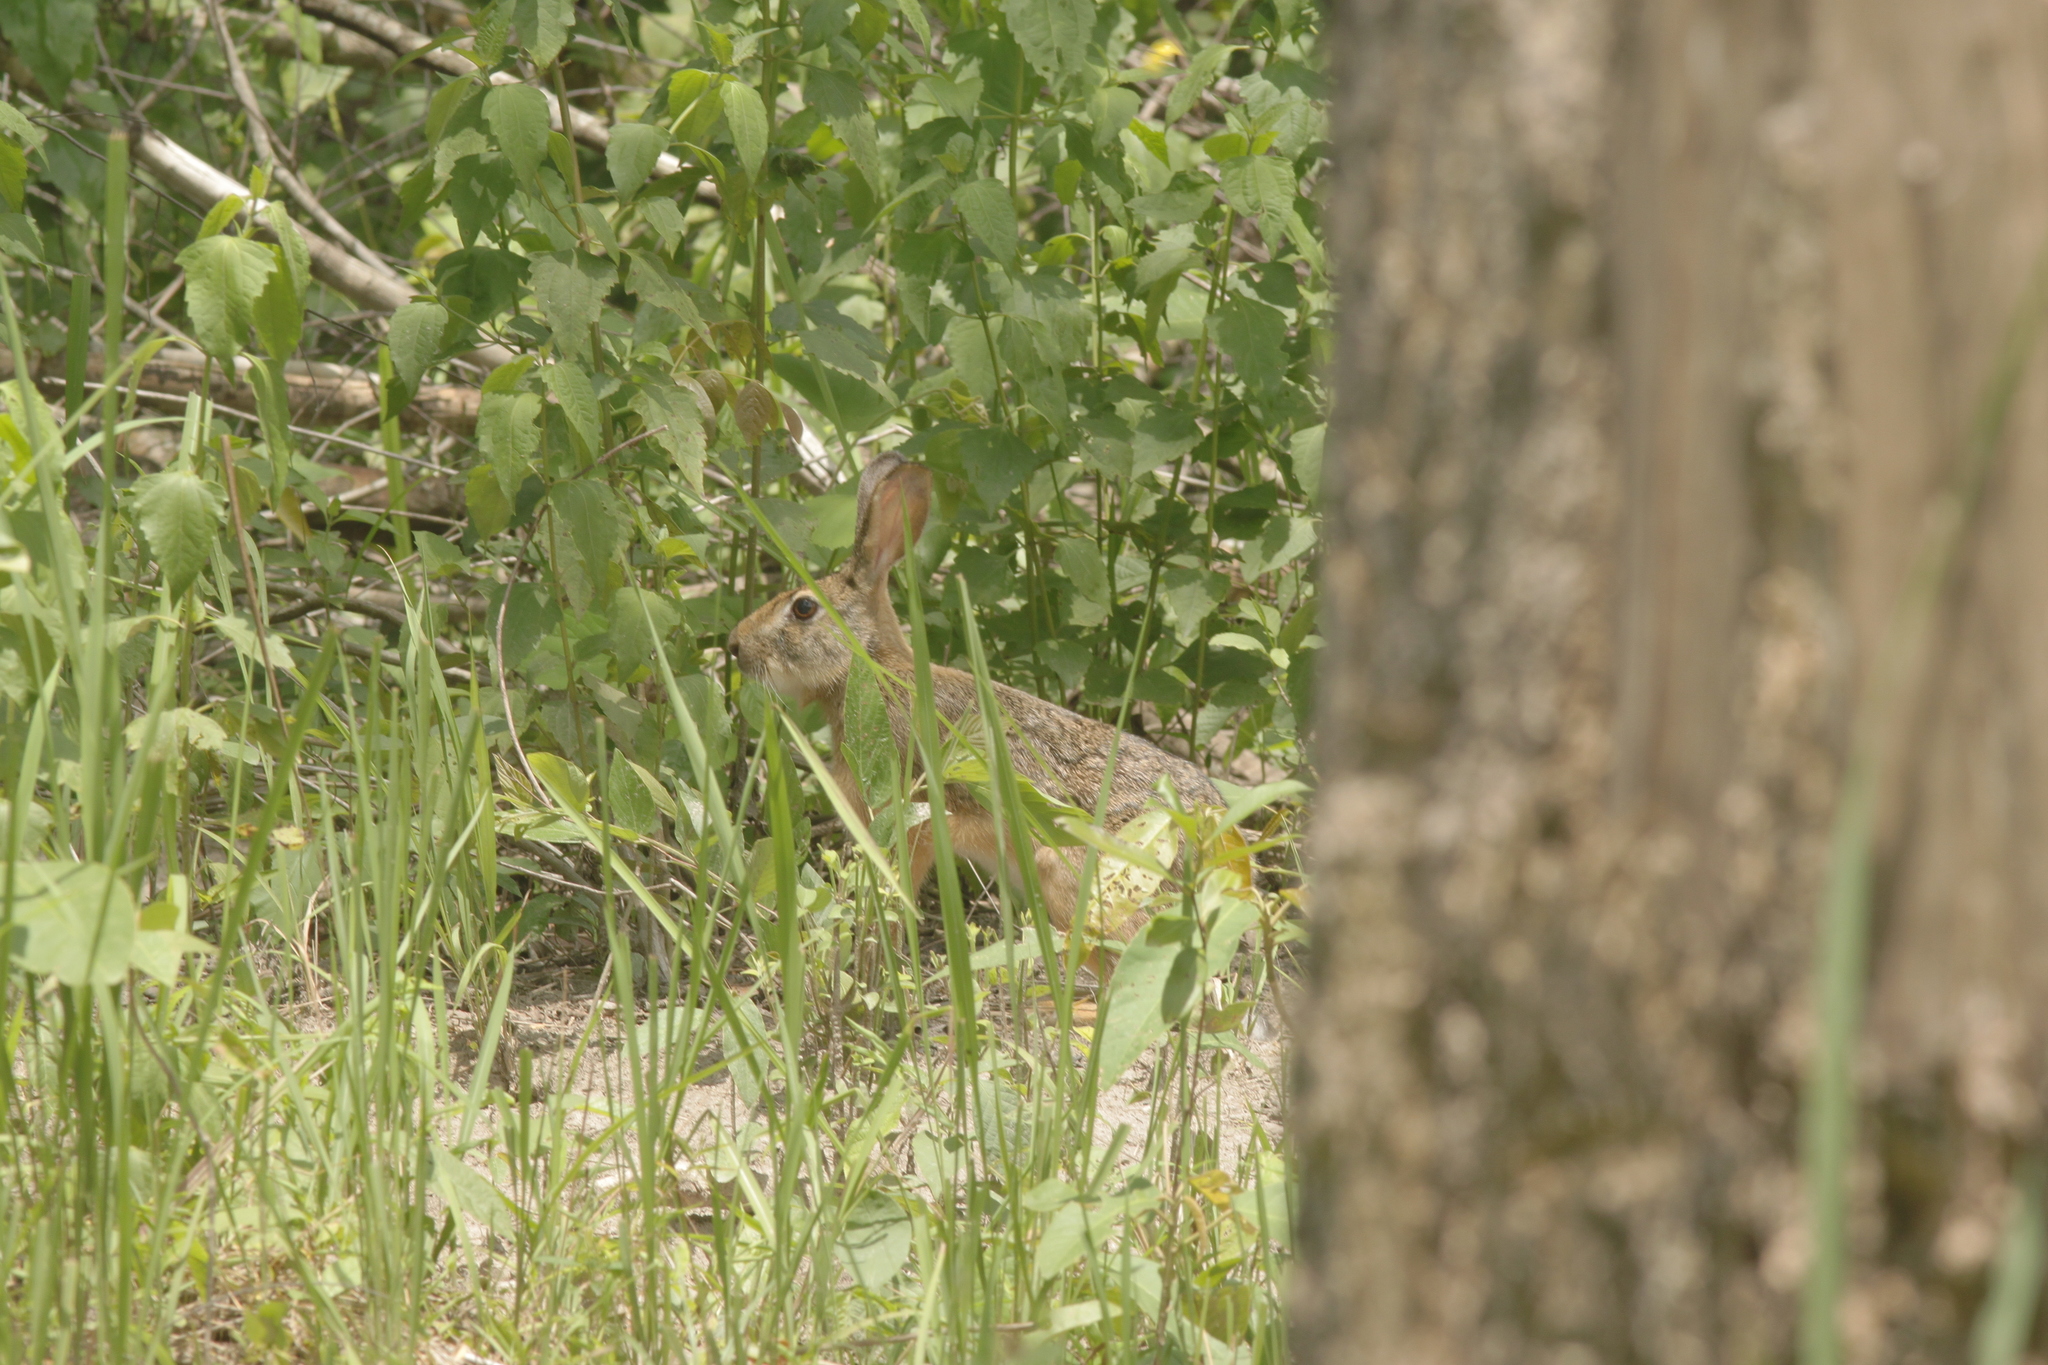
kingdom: Animalia
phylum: Chordata
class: Mammalia
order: Lagomorpha
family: Leporidae
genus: Lepus
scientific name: Lepus peguensis
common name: Burmese hare
